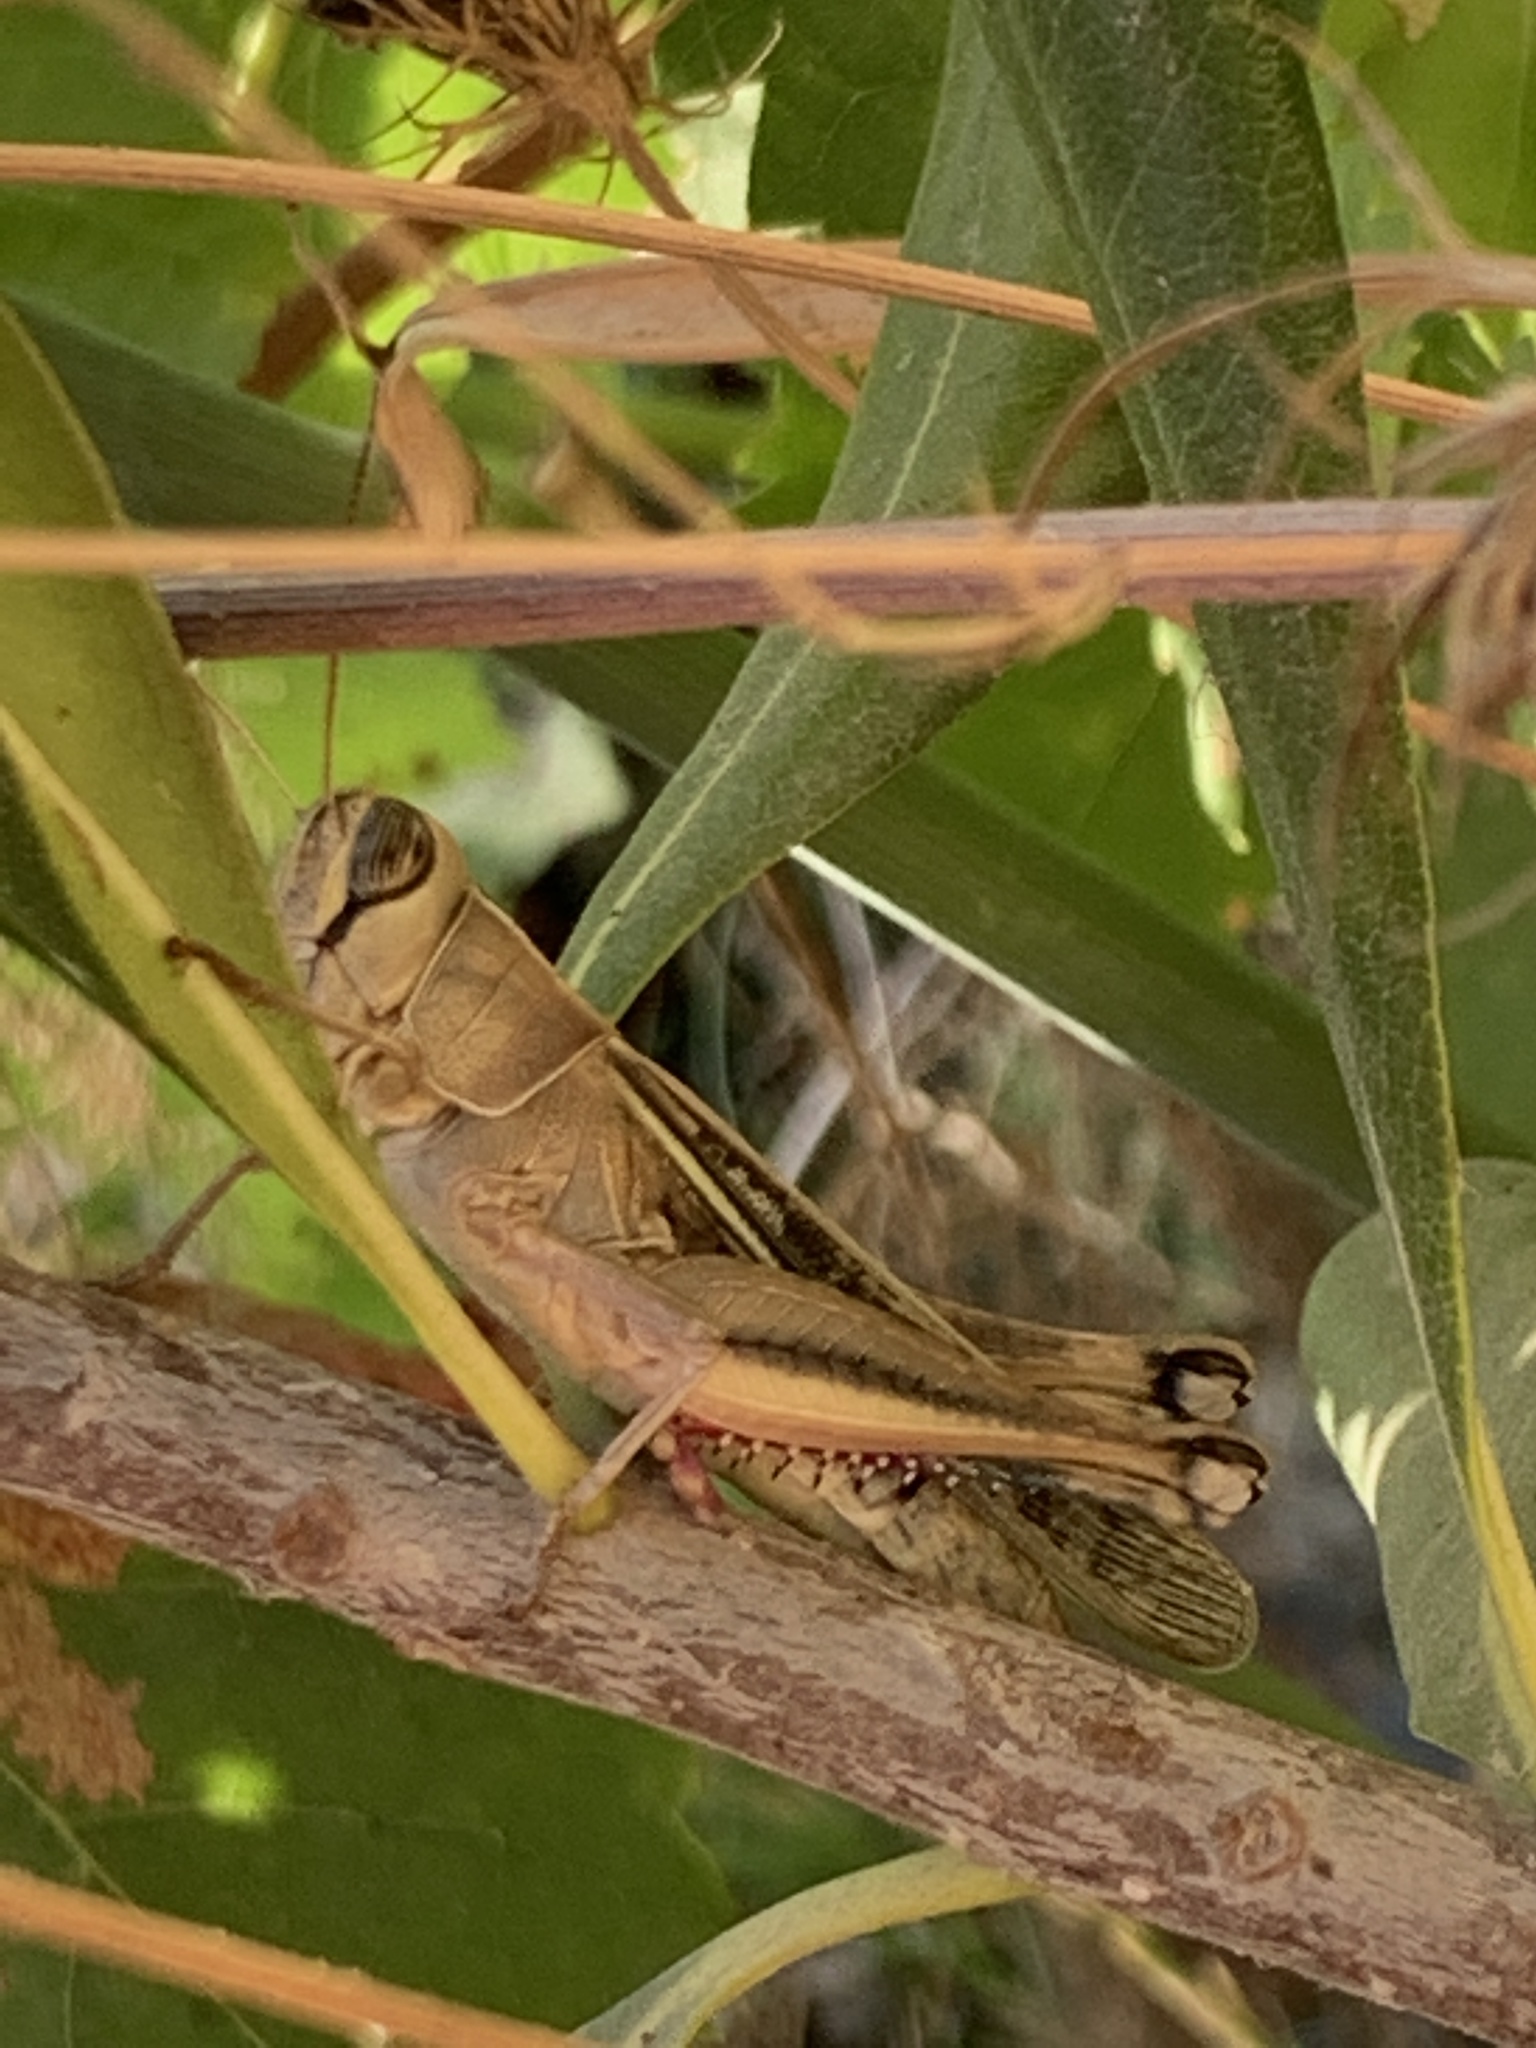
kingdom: Animalia
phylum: Arthropoda
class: Insecta
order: Orthoptera
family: Acrididae
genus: Eyprepocnemis
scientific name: Eyprepocnemis plorans
